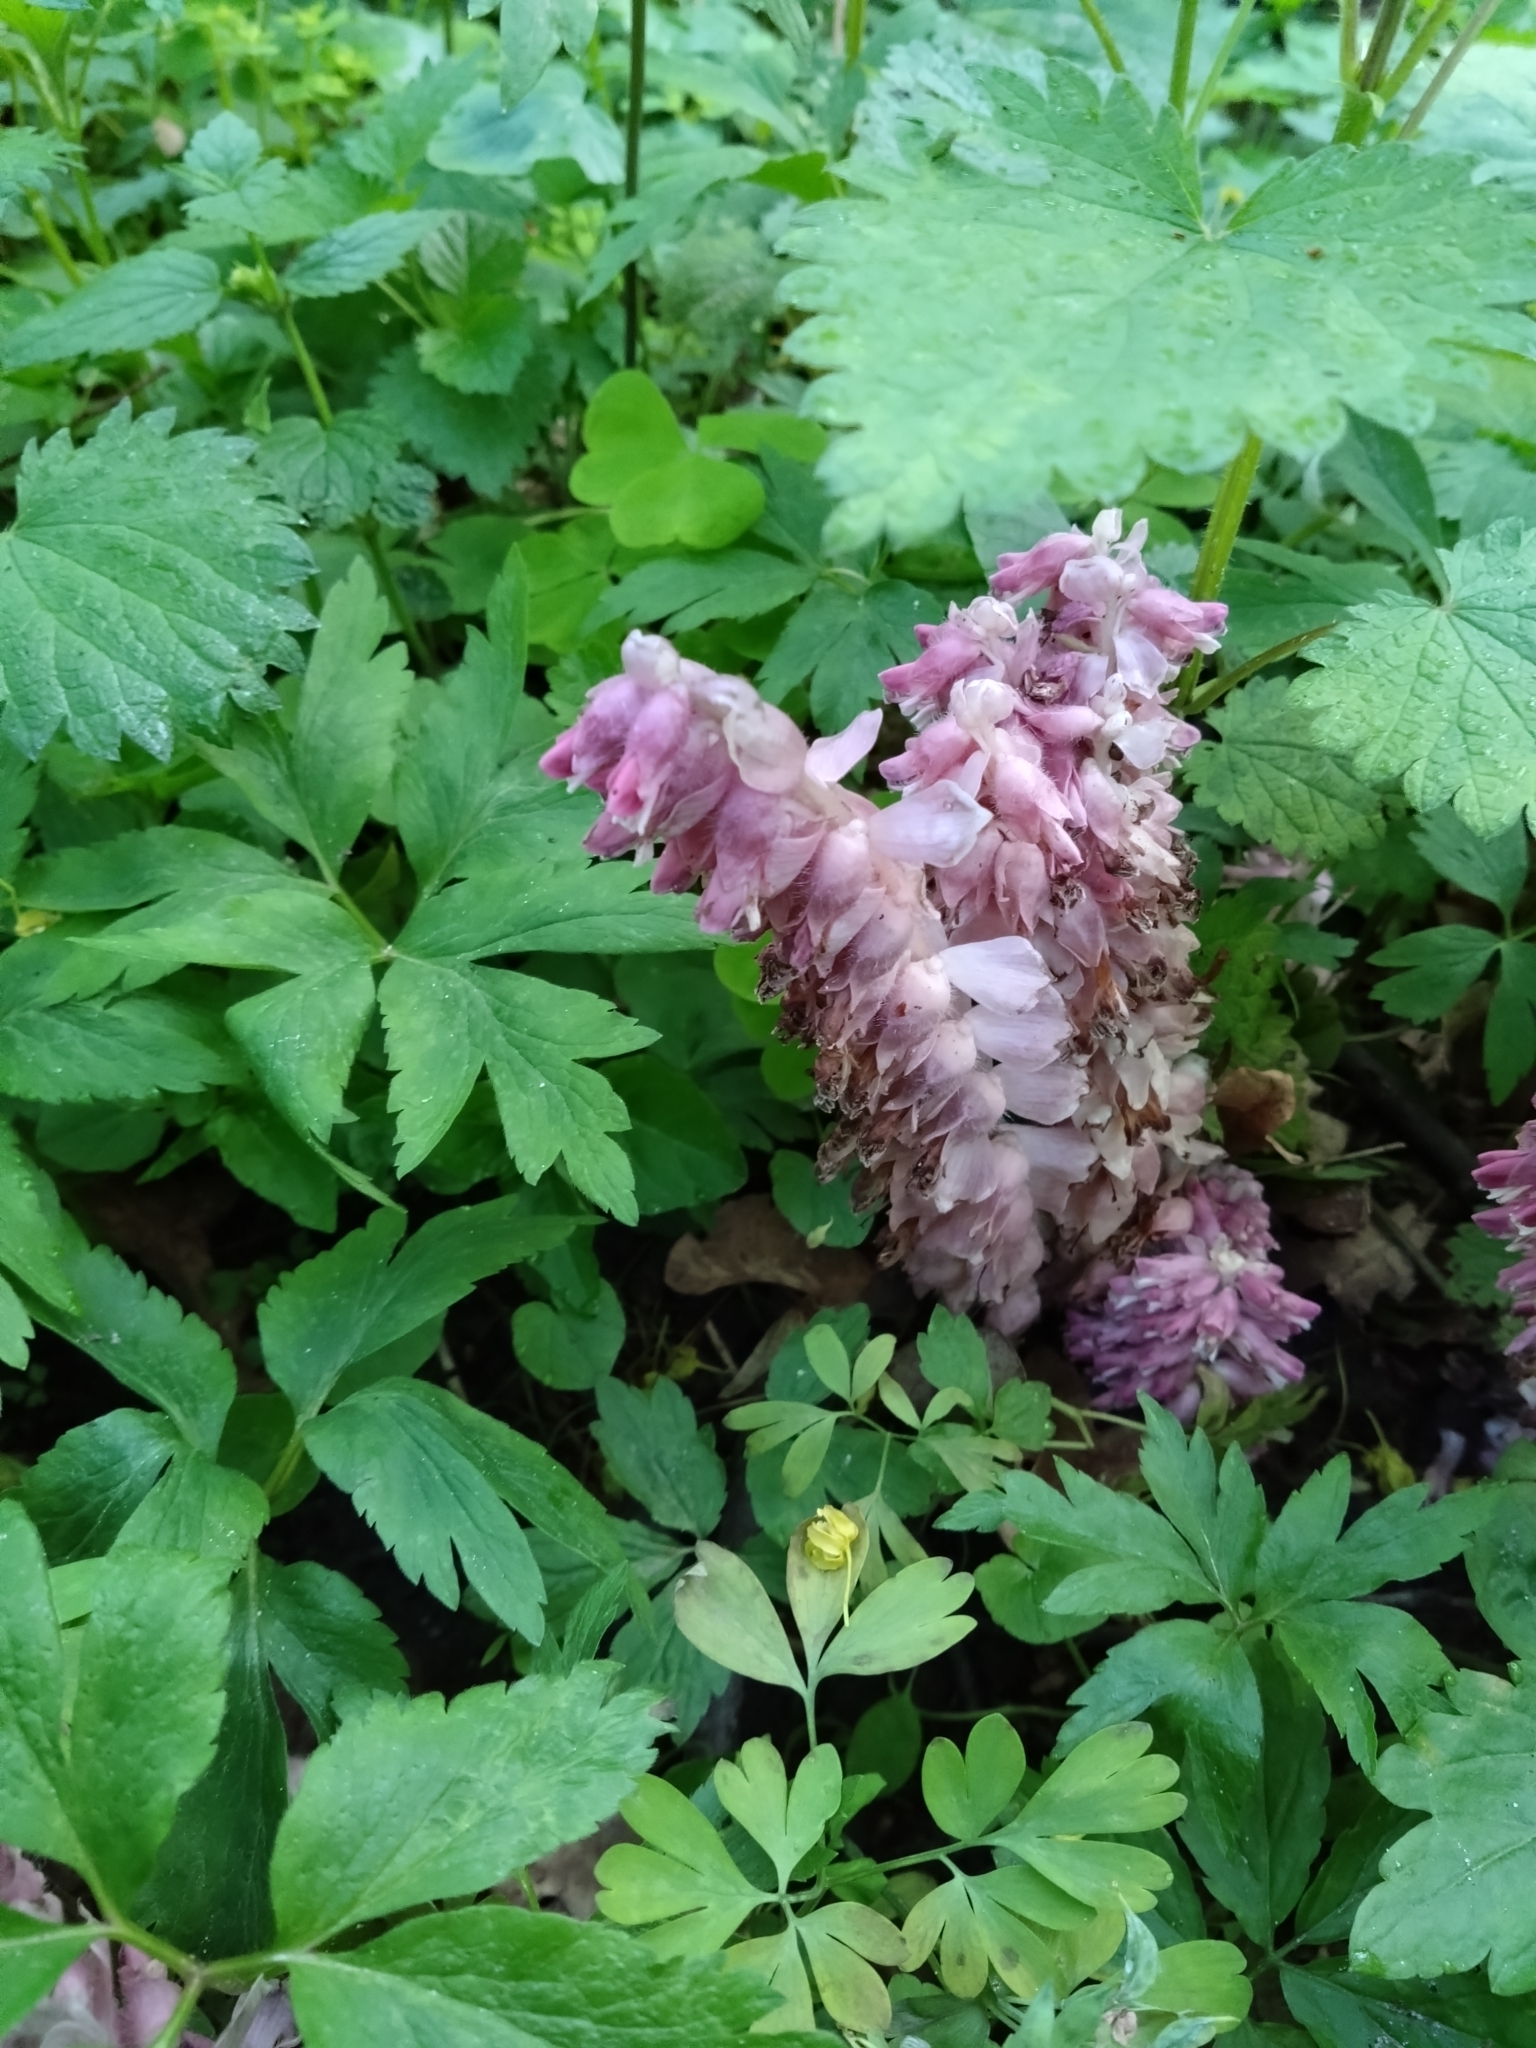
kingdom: Plantae
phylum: Tracheophyta
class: Magnoliopsida
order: Lamiales
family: Orobanchaceae
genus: Lathraea
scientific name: Lathraea squamaria
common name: Toothwort
